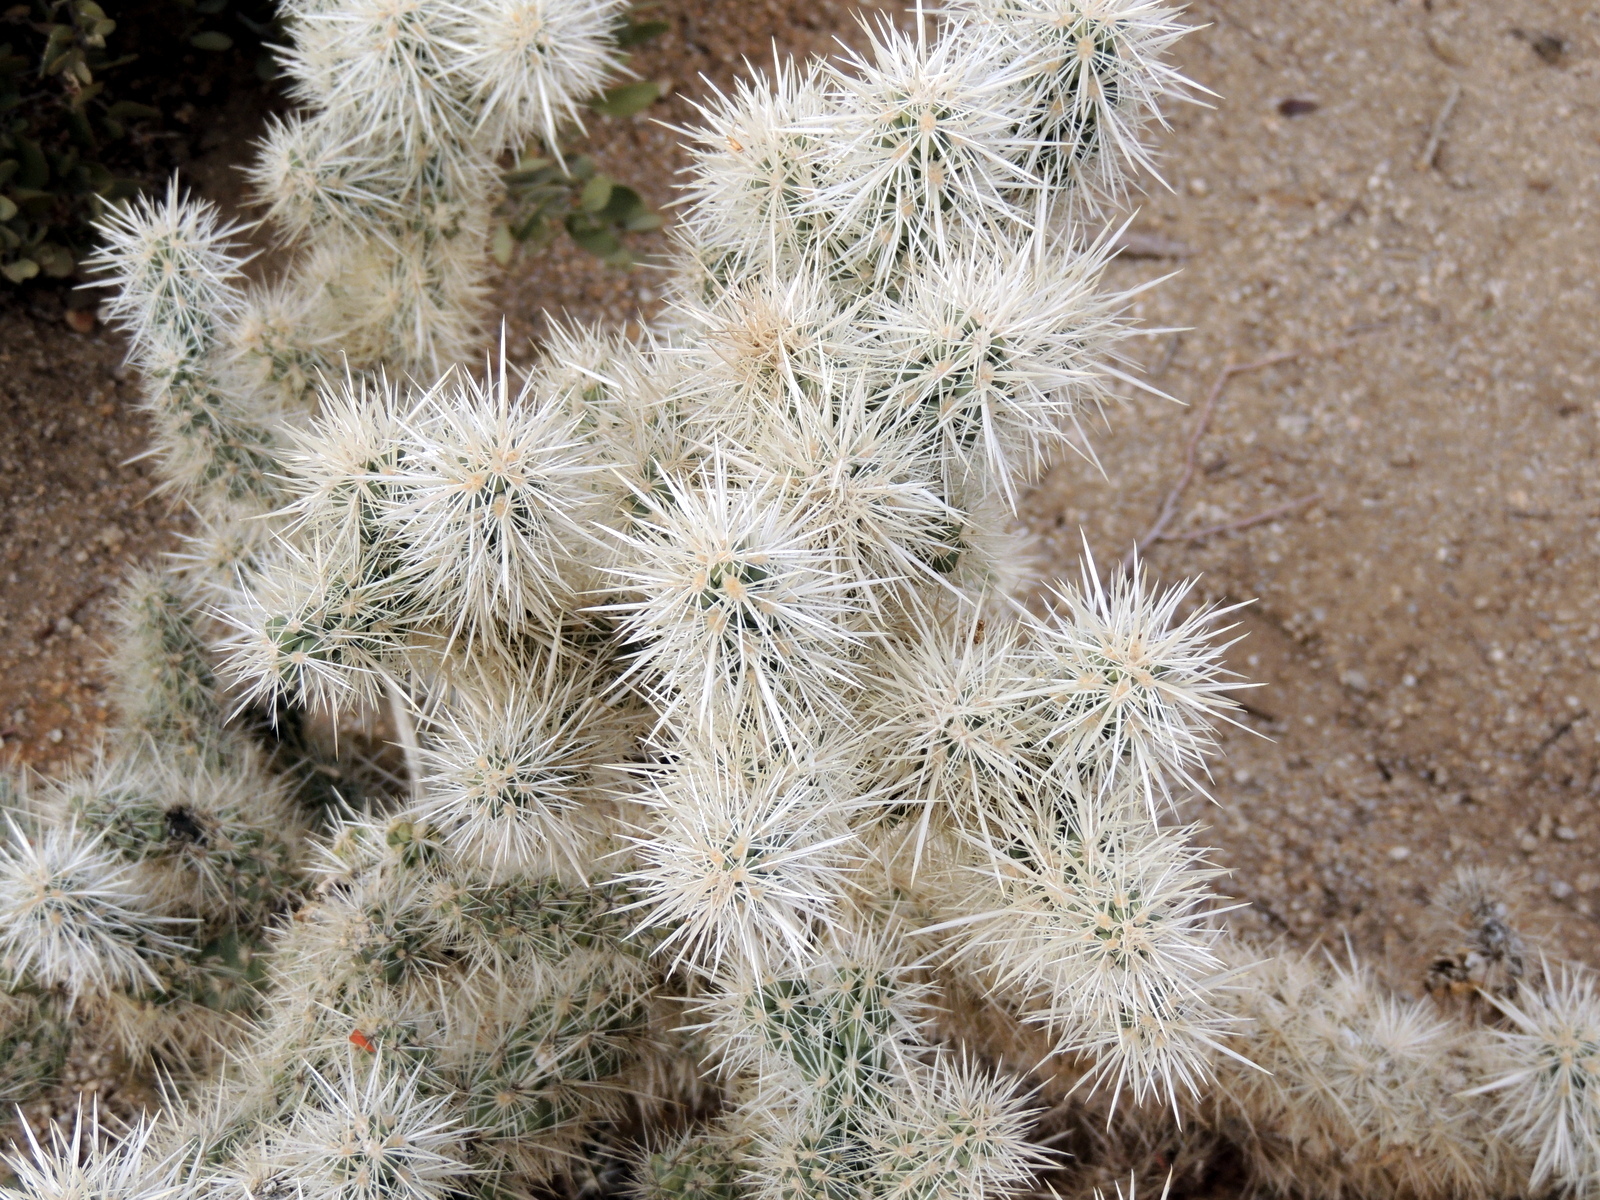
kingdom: Plantae
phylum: Tracheophyta
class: Magnoliopsida
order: Caryophyllales
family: Cactaceae
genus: Cylindropuntia
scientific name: Cylindropuntia echinocarpa
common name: Ground cholla
